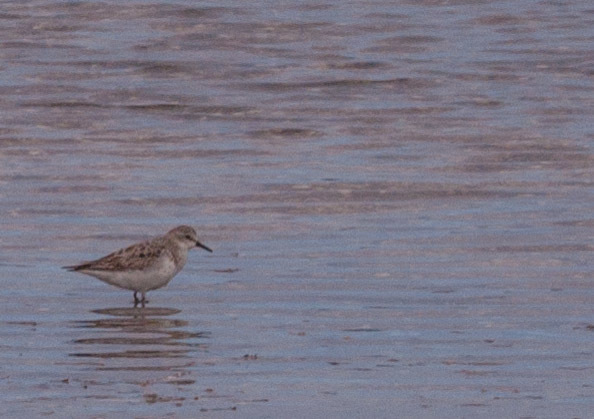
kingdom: Animalia
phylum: Chordata
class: Aves
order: Charadriiformes
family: Scolopacidae
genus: Calidris
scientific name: Calidris ruficollis
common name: Red-necked stint
